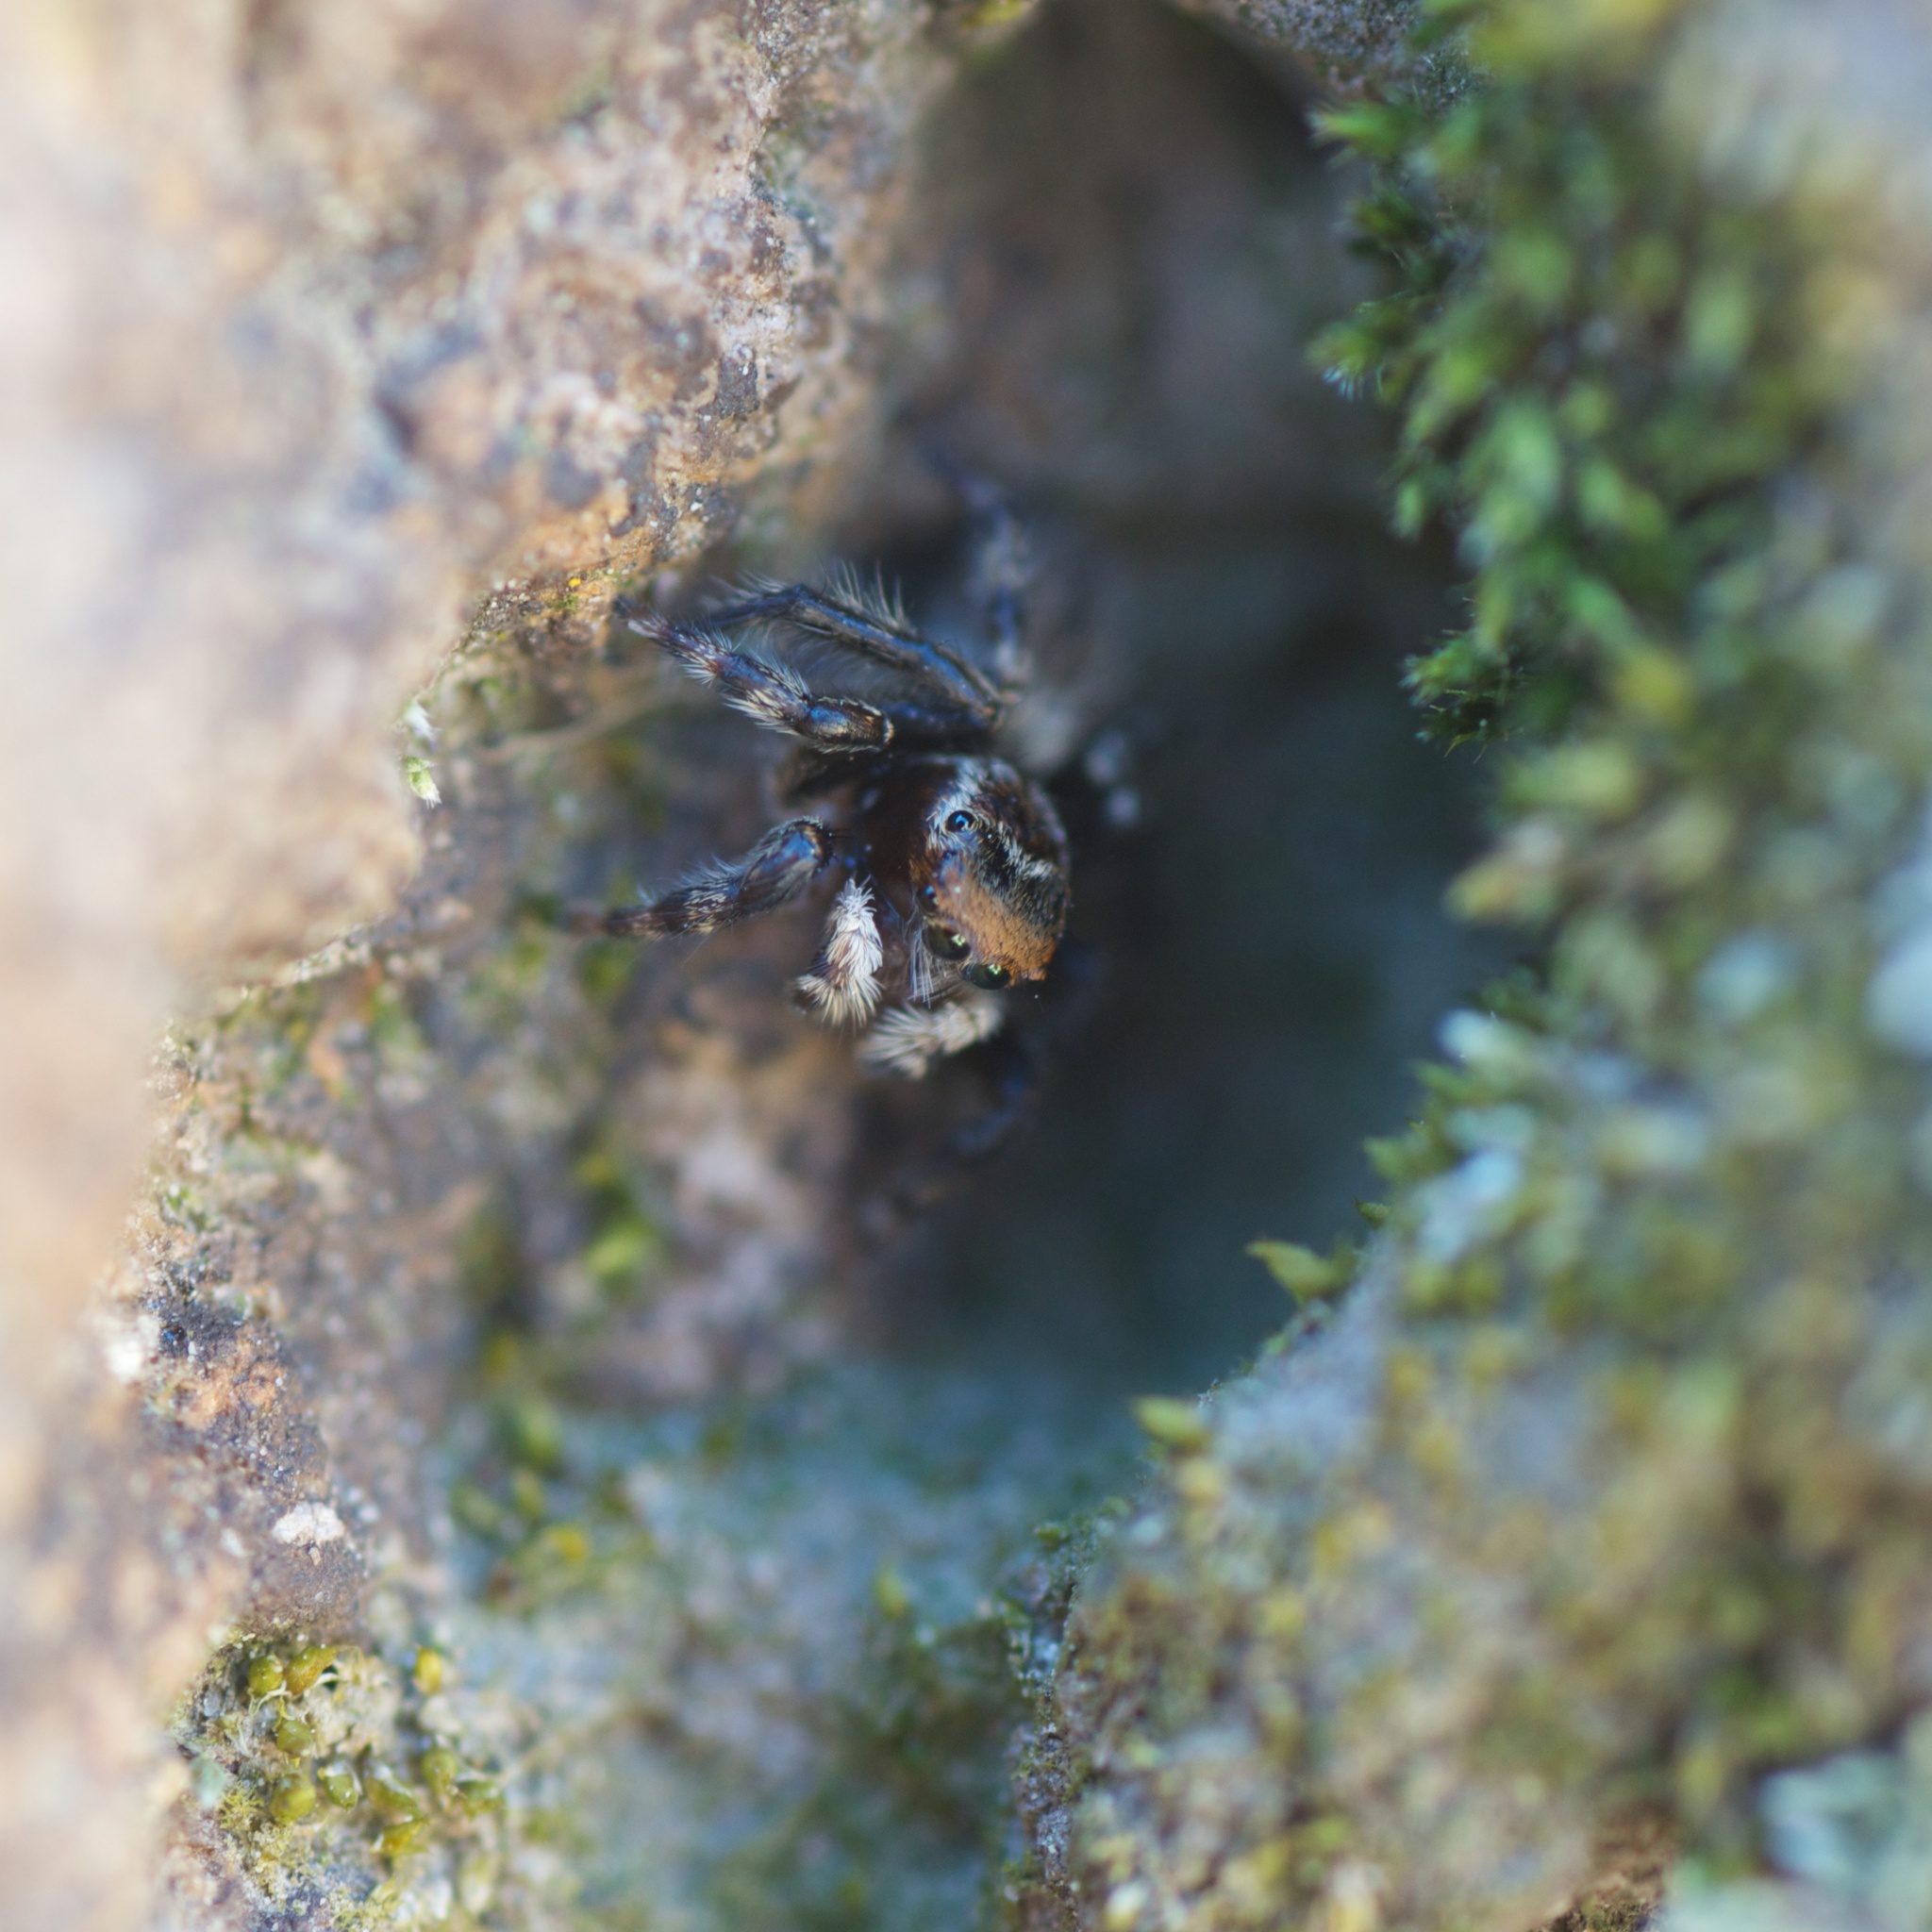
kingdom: Animalia
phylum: Arthropoda
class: Arachnida
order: Araneae
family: Salticidae
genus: Maratus
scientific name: Maratus griseus
